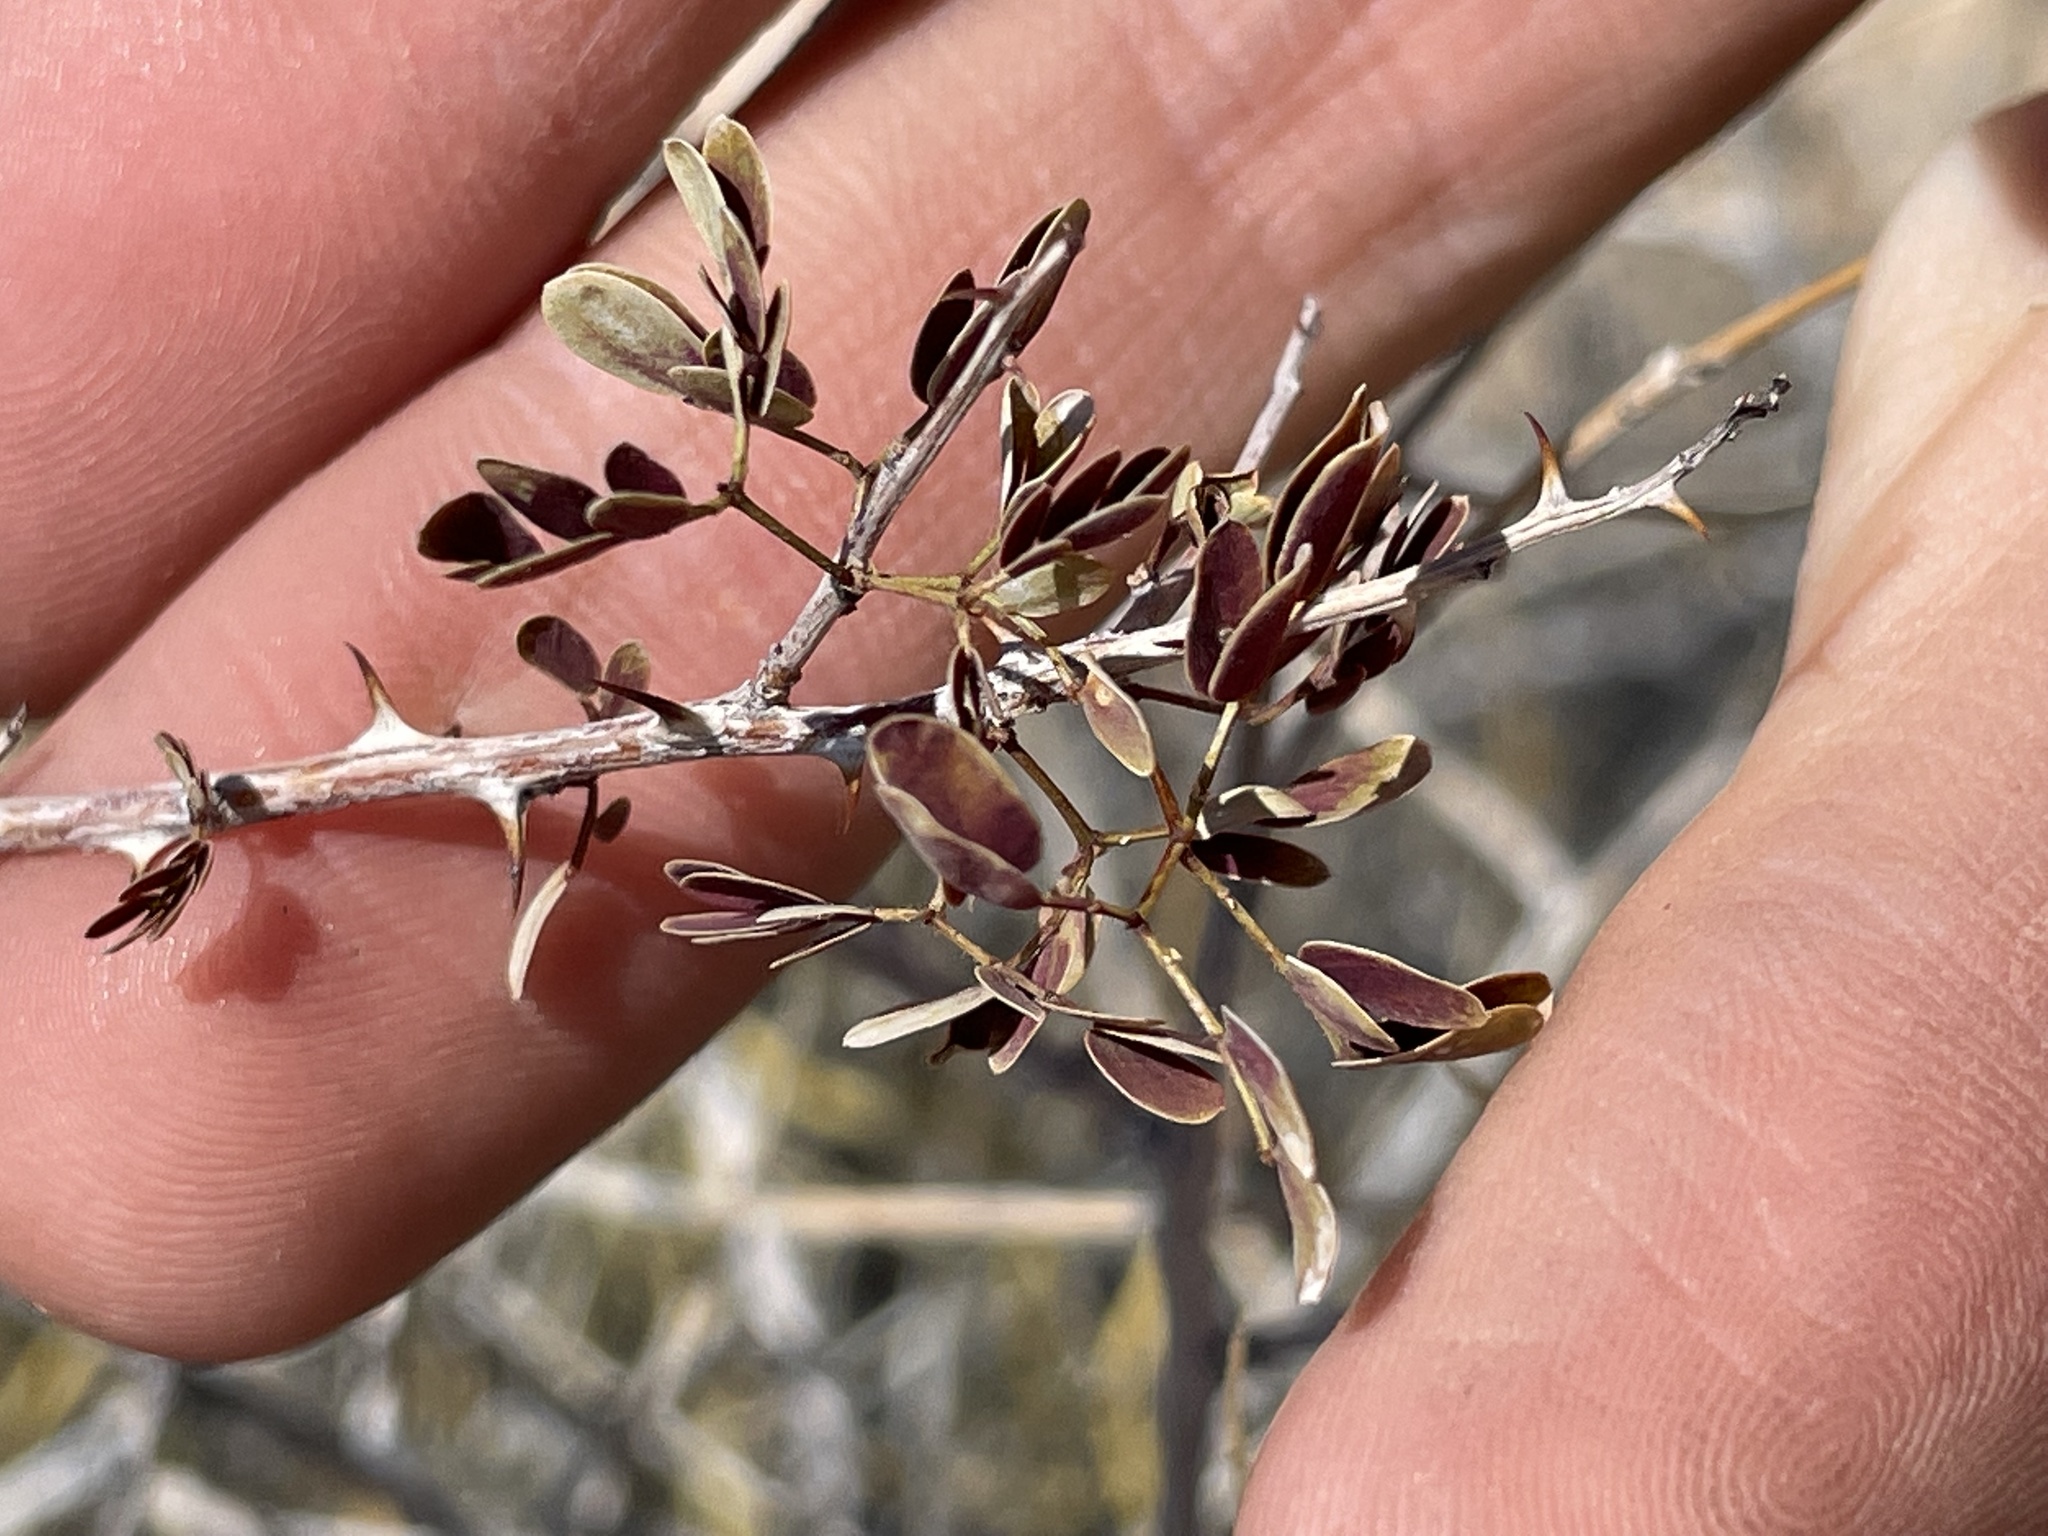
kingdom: Plantae
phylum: Tracheophyta
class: Magnoliopsida
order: Fabales
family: Fabaceae
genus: Senegalia
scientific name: Senegalia greggii
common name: Texas-mimosa
